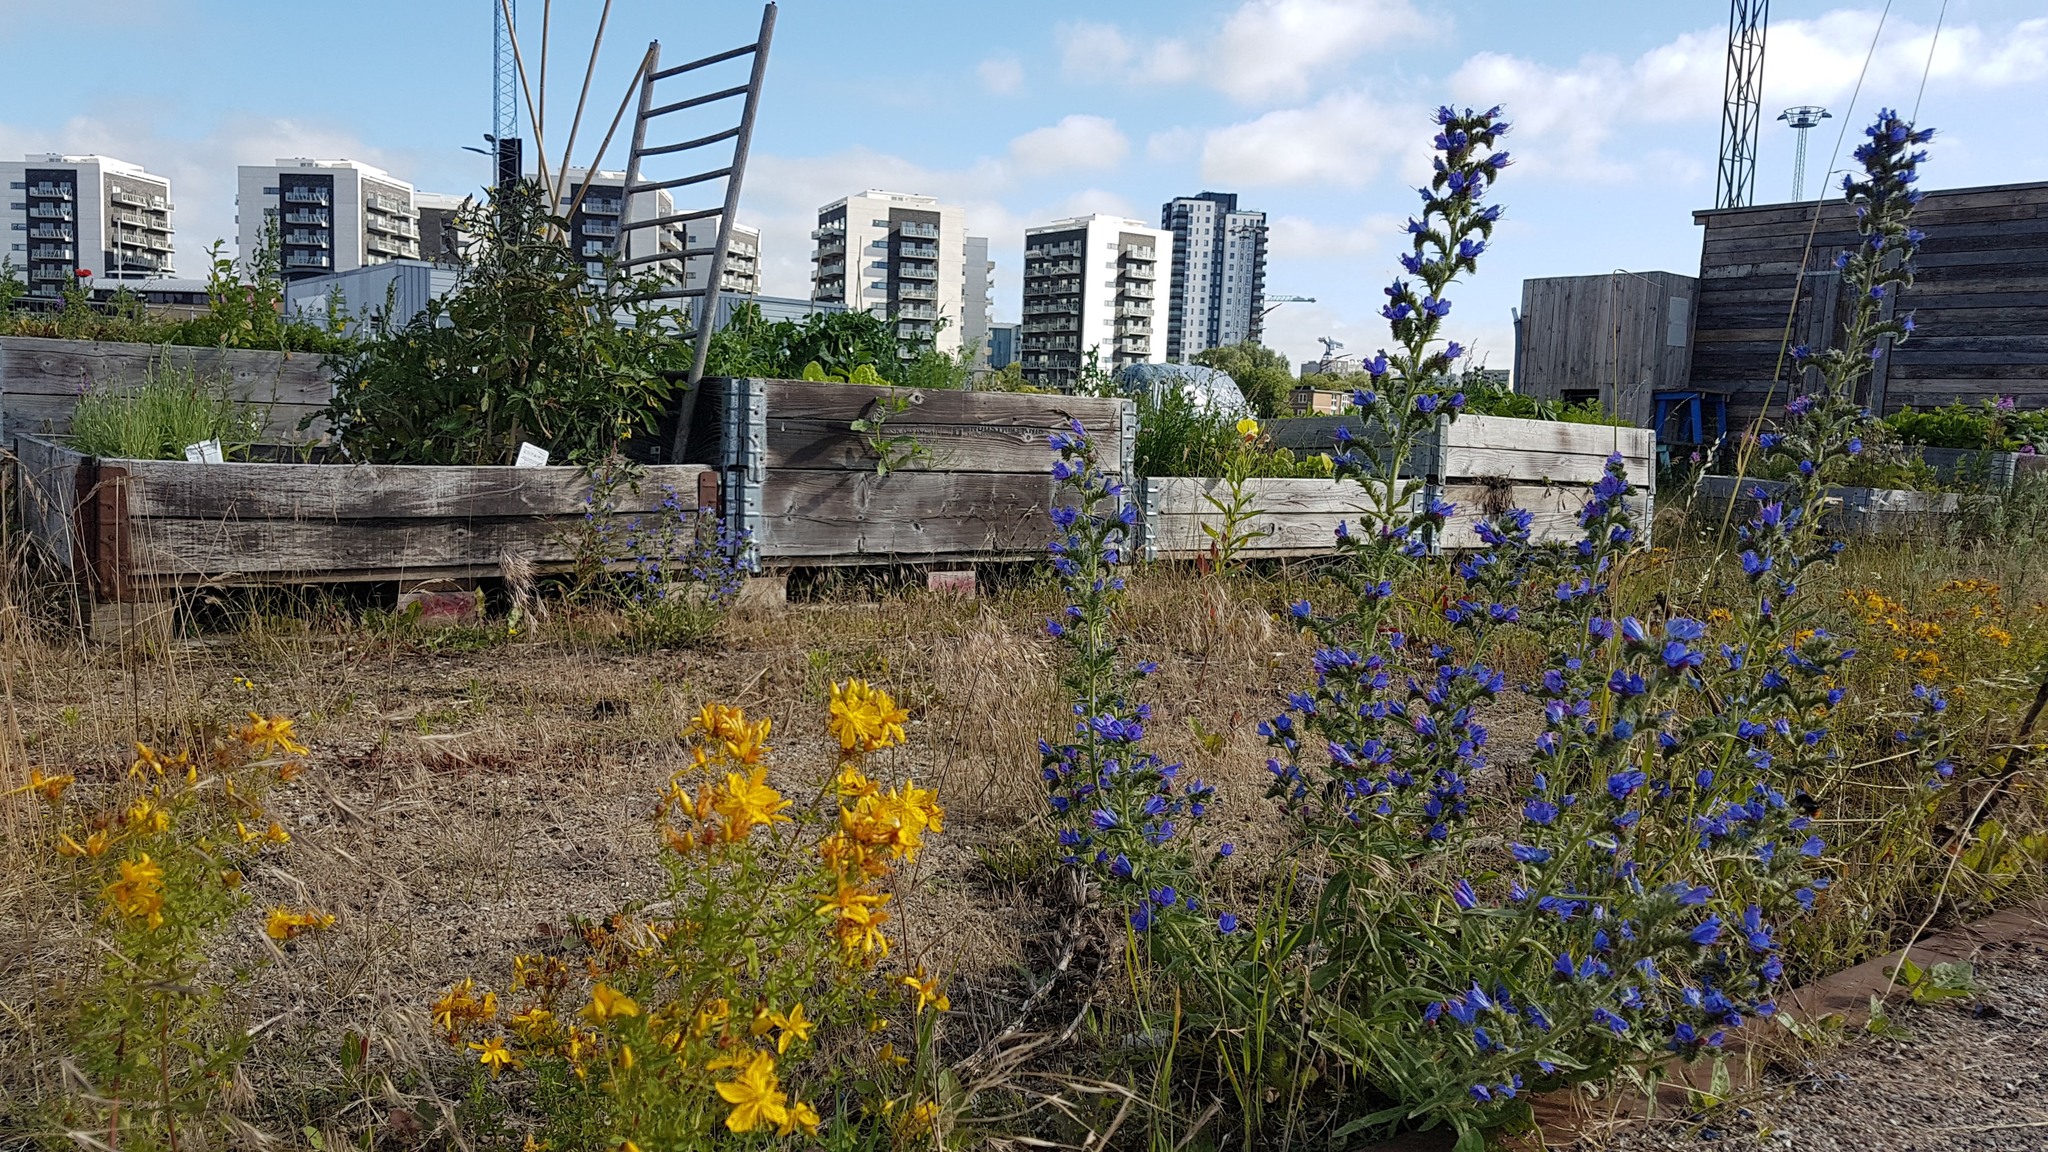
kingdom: Plantae
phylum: Tracheophyta
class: Magnoliopsida
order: Boraginales
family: Boraginaceae
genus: Echium
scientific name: Echium vulgare
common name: Common viper's bugloss
